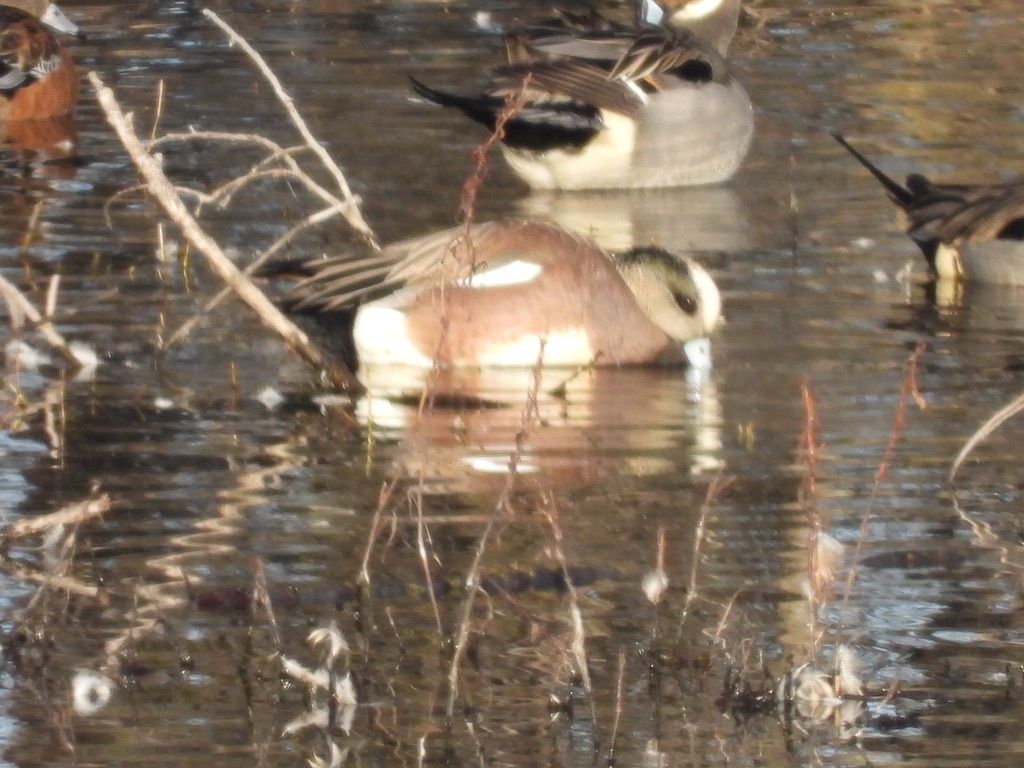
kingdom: Animalia
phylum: Chordata
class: Aves
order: Anseriformes
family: Anatidae
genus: Mareca
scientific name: Mareca americana
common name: American wigeon
